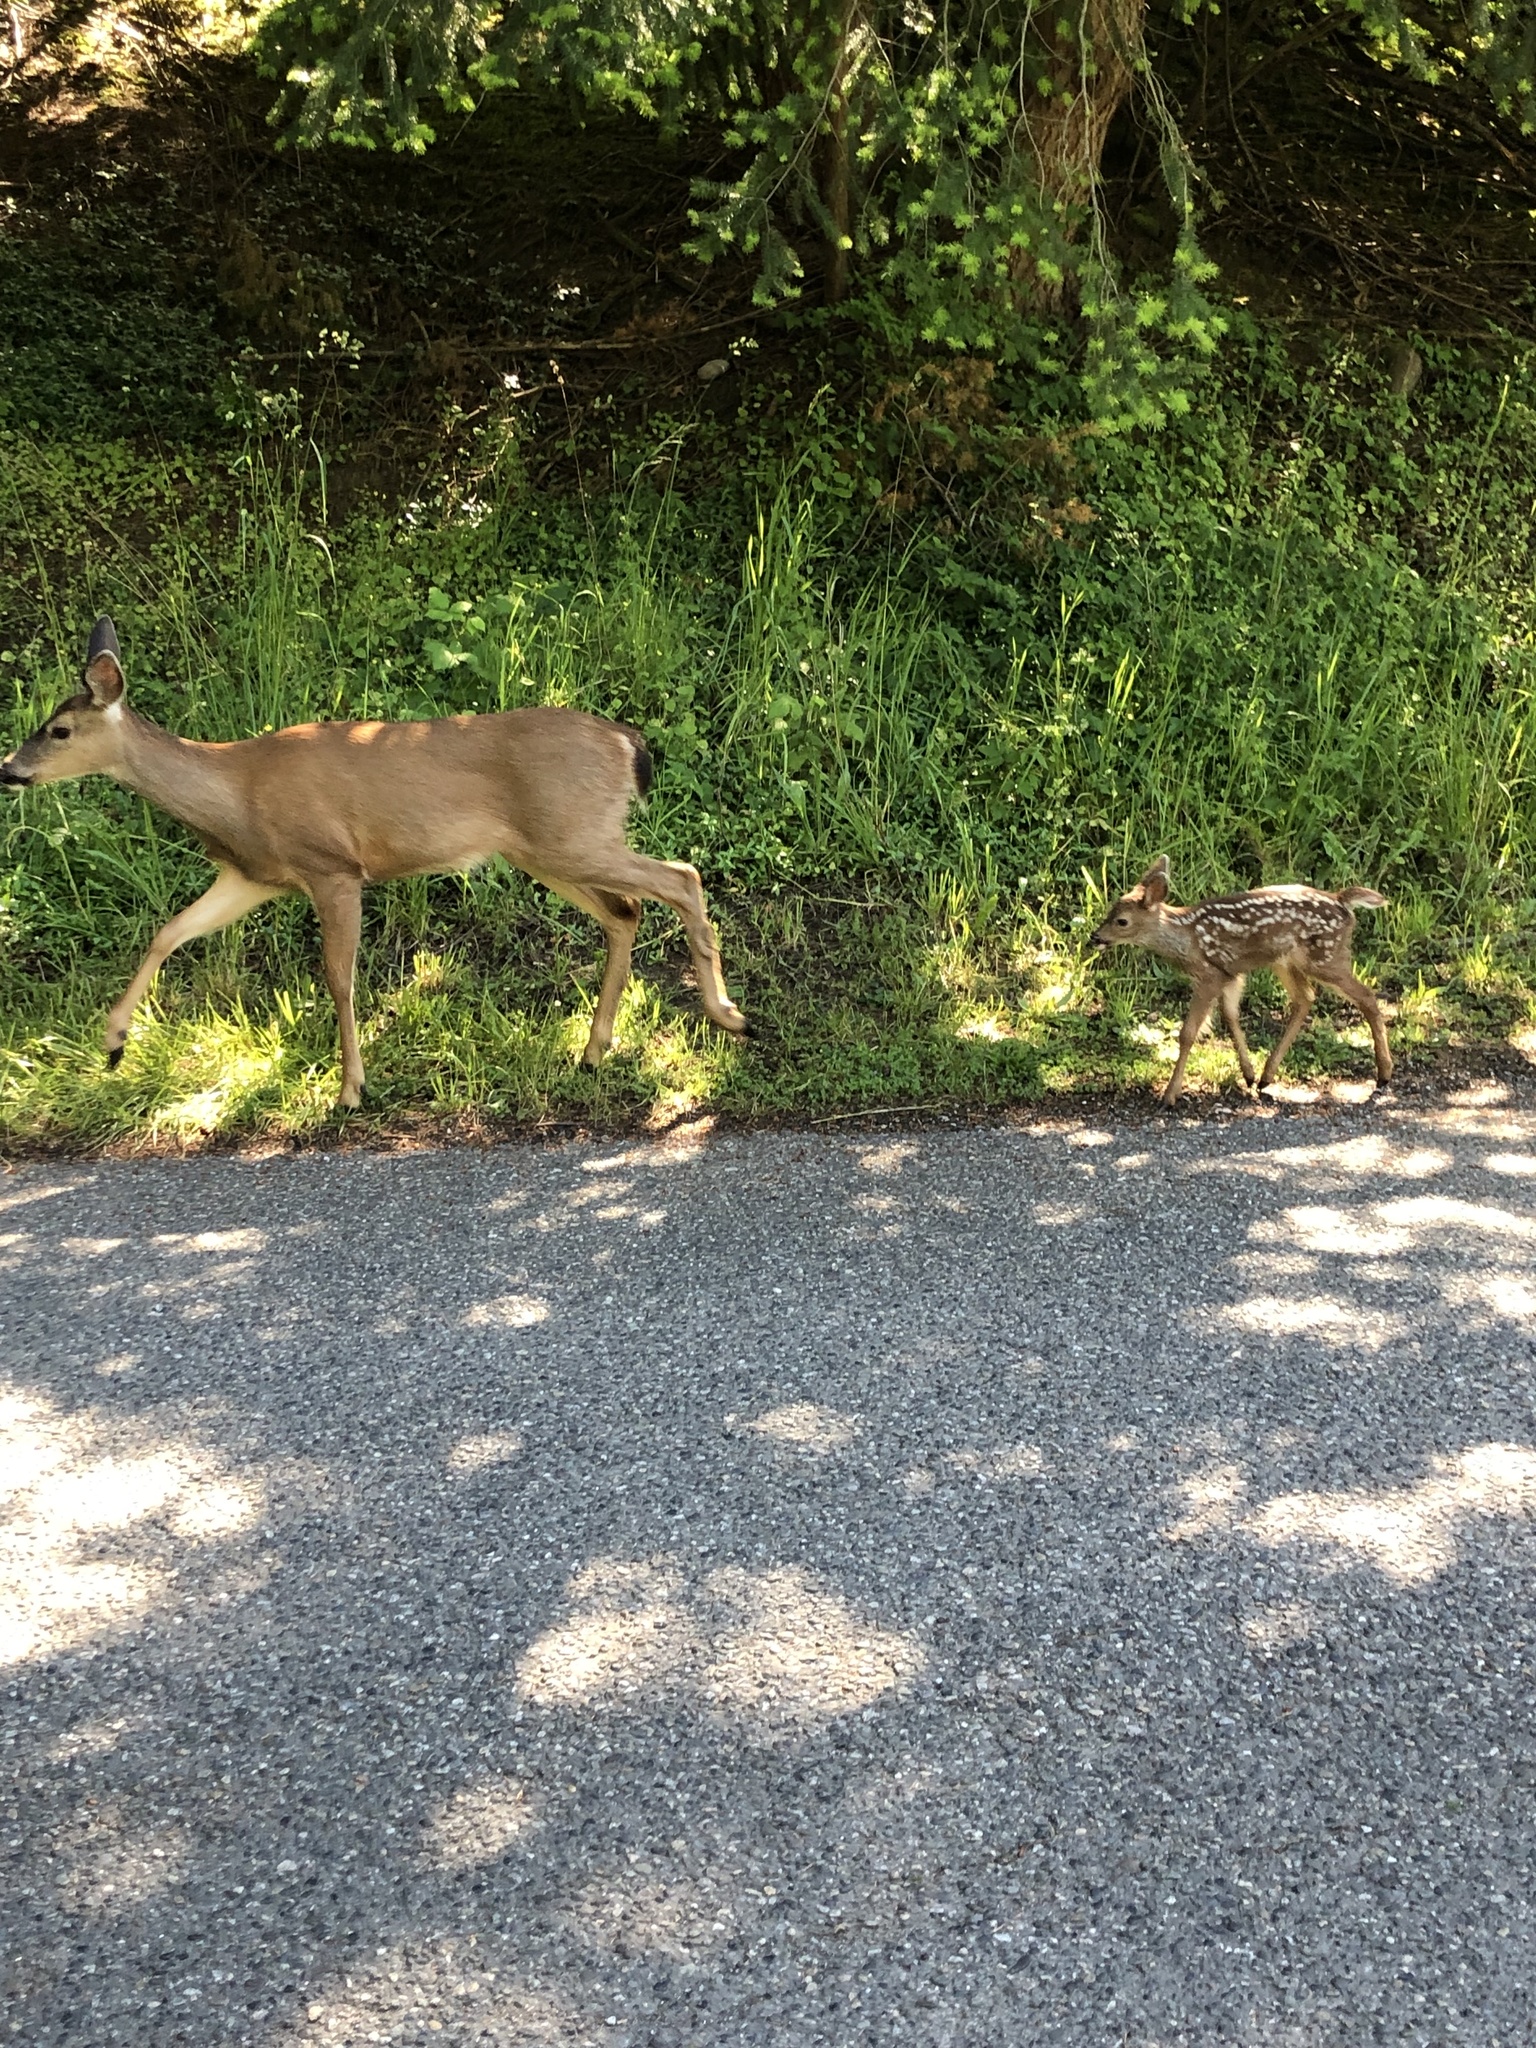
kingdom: Animalia
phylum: Chordata
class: Mammalia
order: Artiodactyla
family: Cervidae
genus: Odocoileus
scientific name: Odocoileus hemionus
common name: Mule deer
